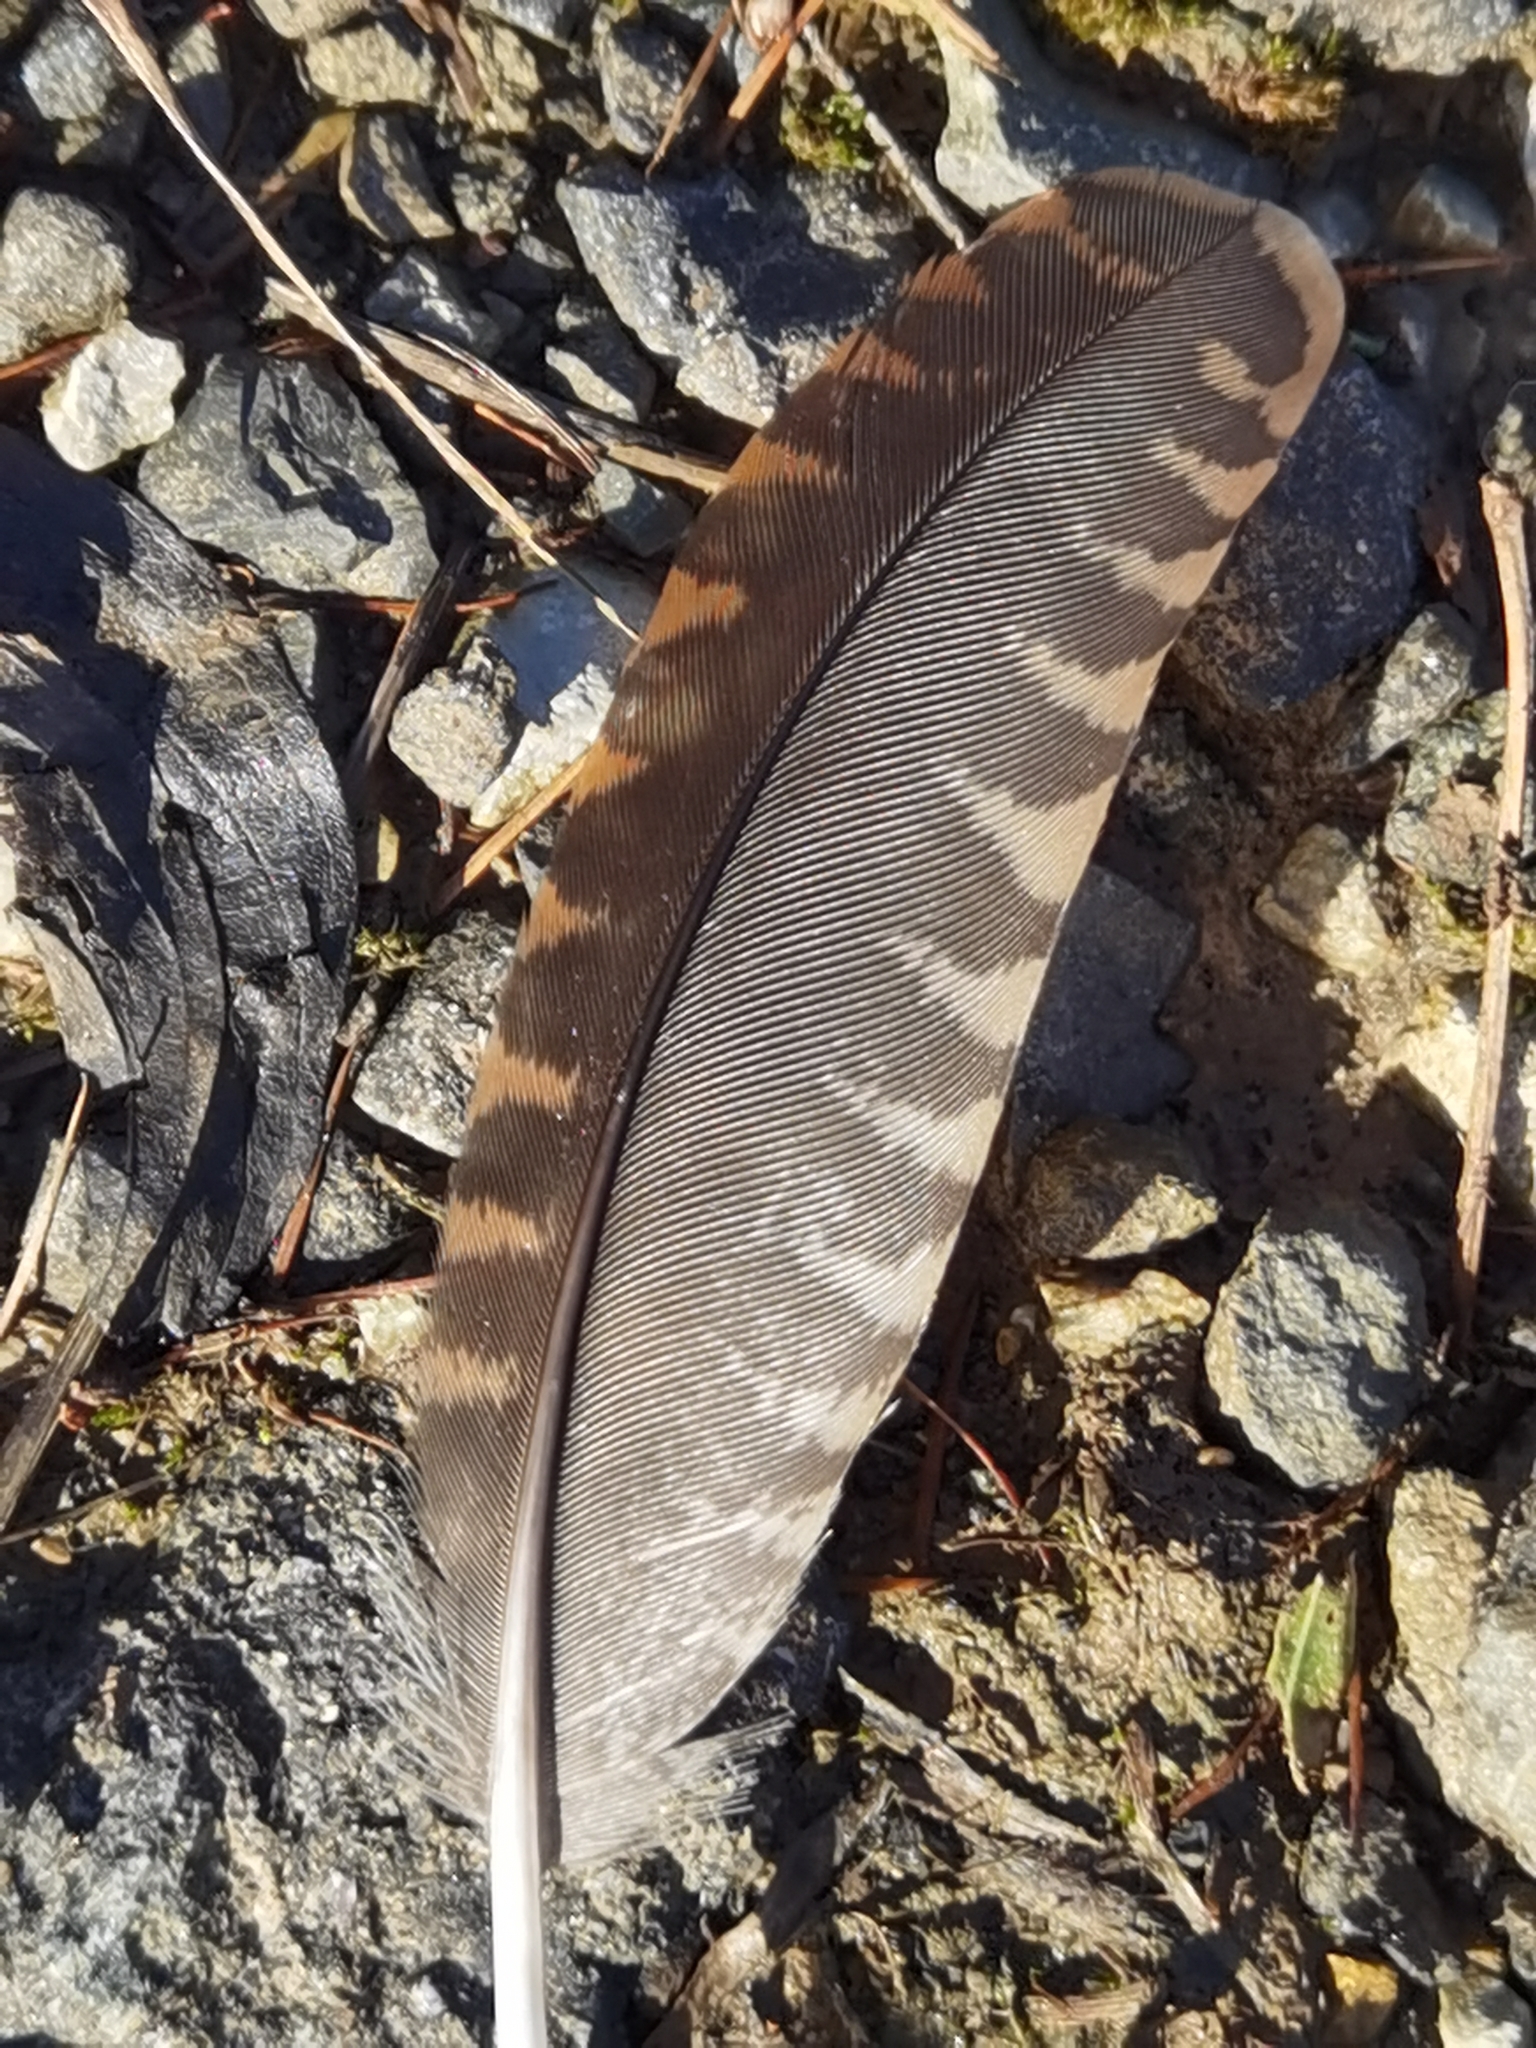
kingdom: Animalia
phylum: Chordata
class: Aves
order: Charadriiformes
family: Scolopacidae
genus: Scolopax
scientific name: Scolopax rusticola
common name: Eurasian woodcock
